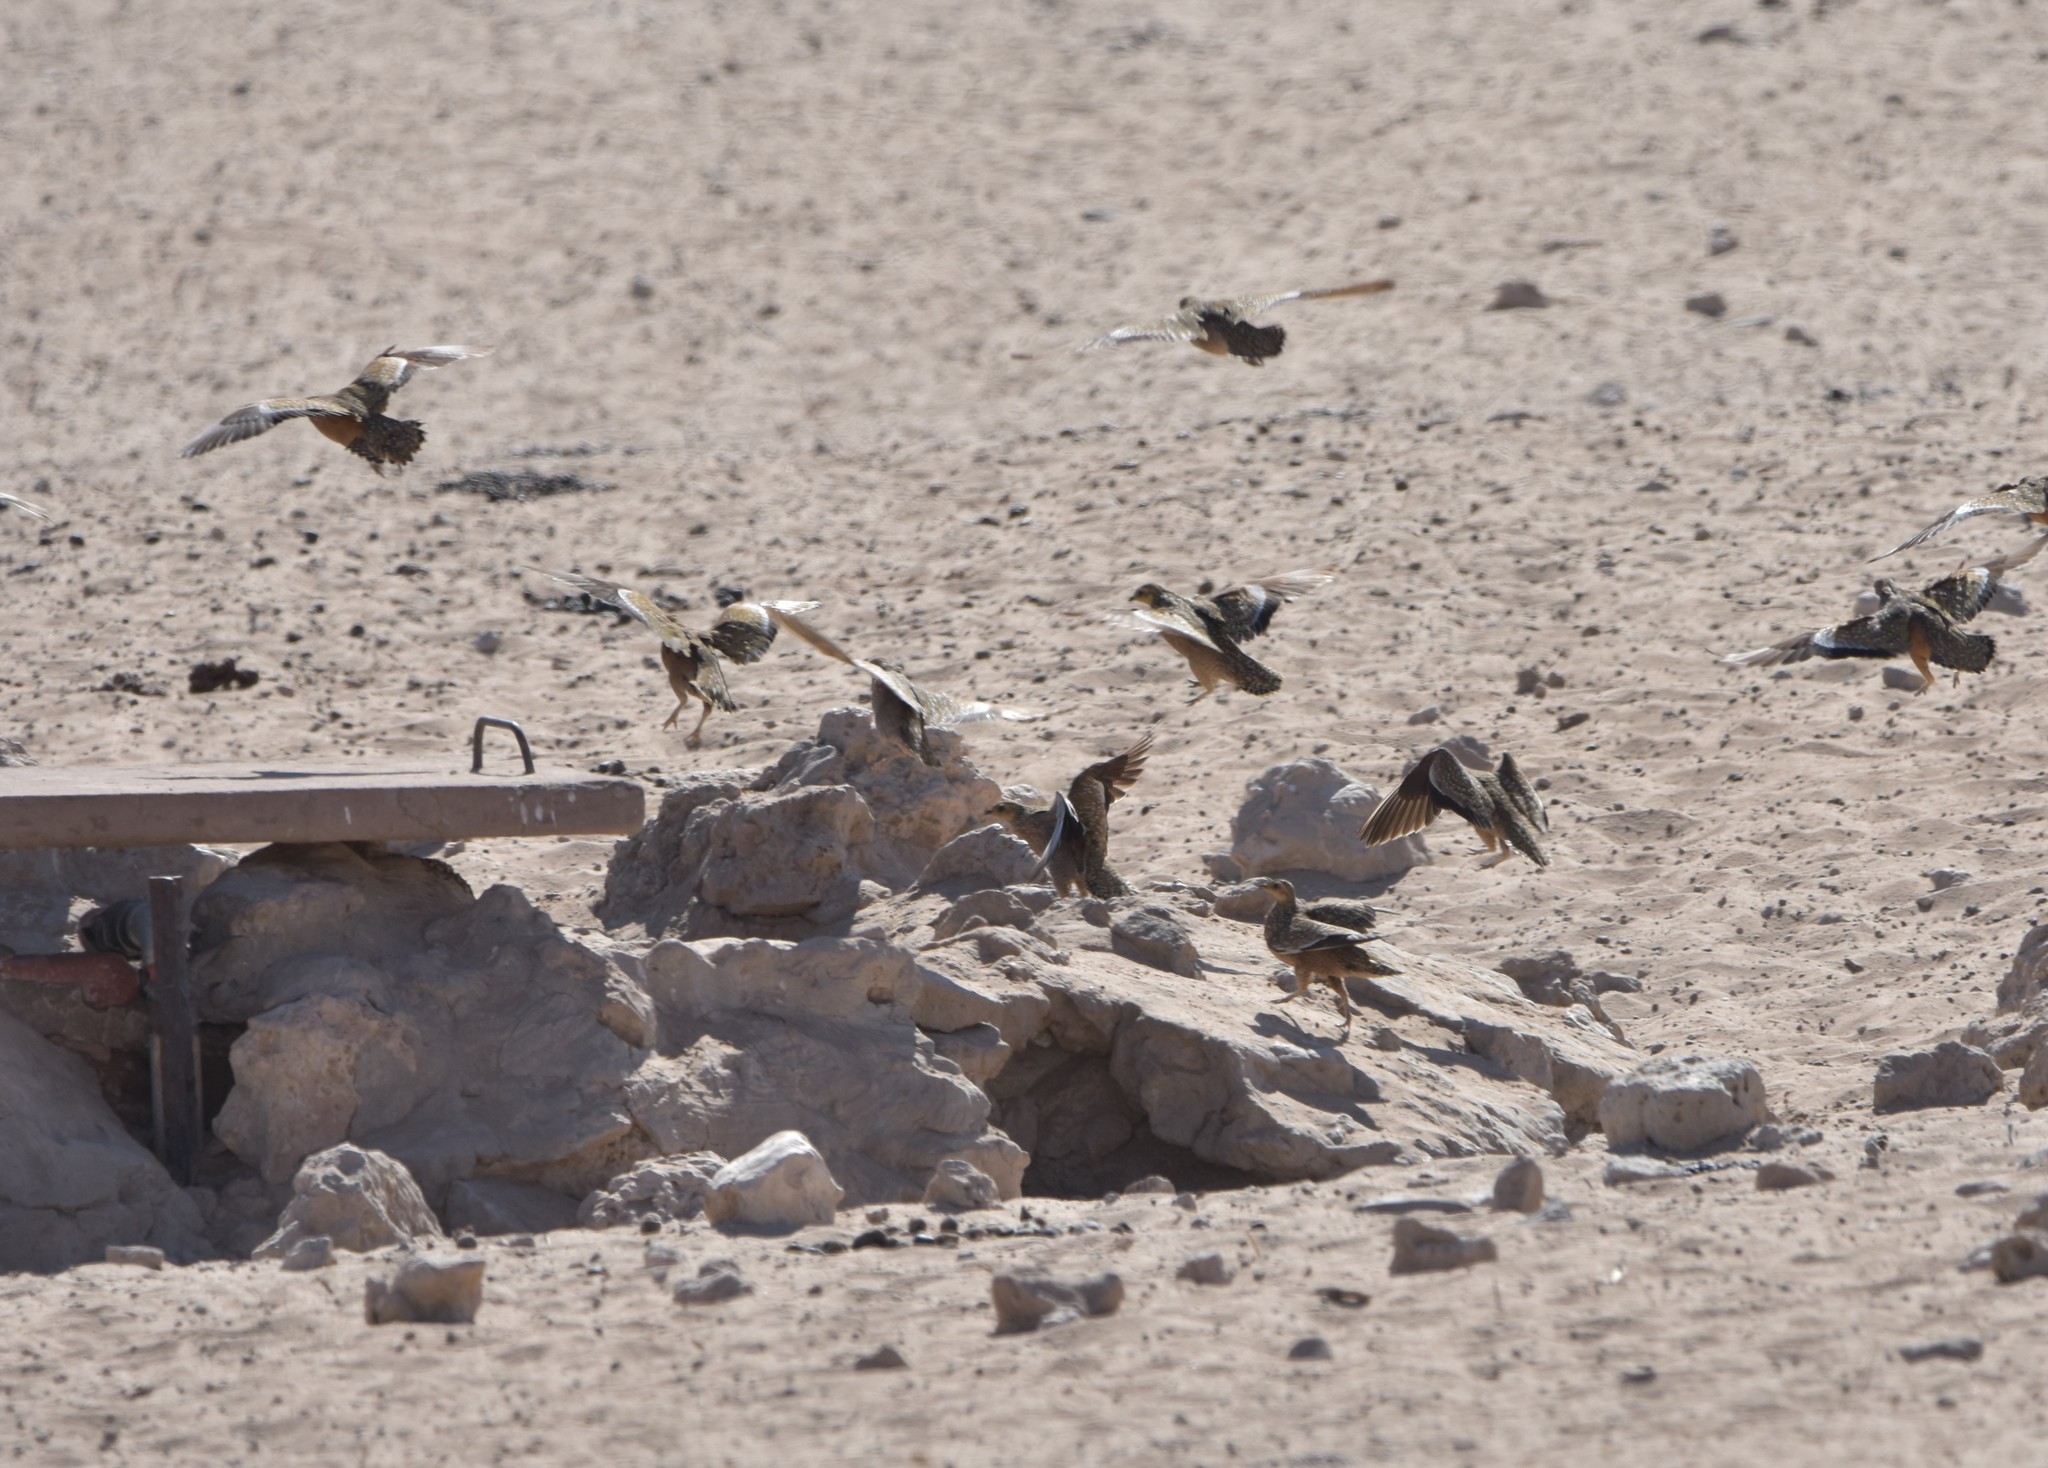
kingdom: Animalia
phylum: Chordata
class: Aves
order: Pteroclidiformes
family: Pteroclididae
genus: Pterocles
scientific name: Pterocles burchelli
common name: Burchell's sandgrouse
